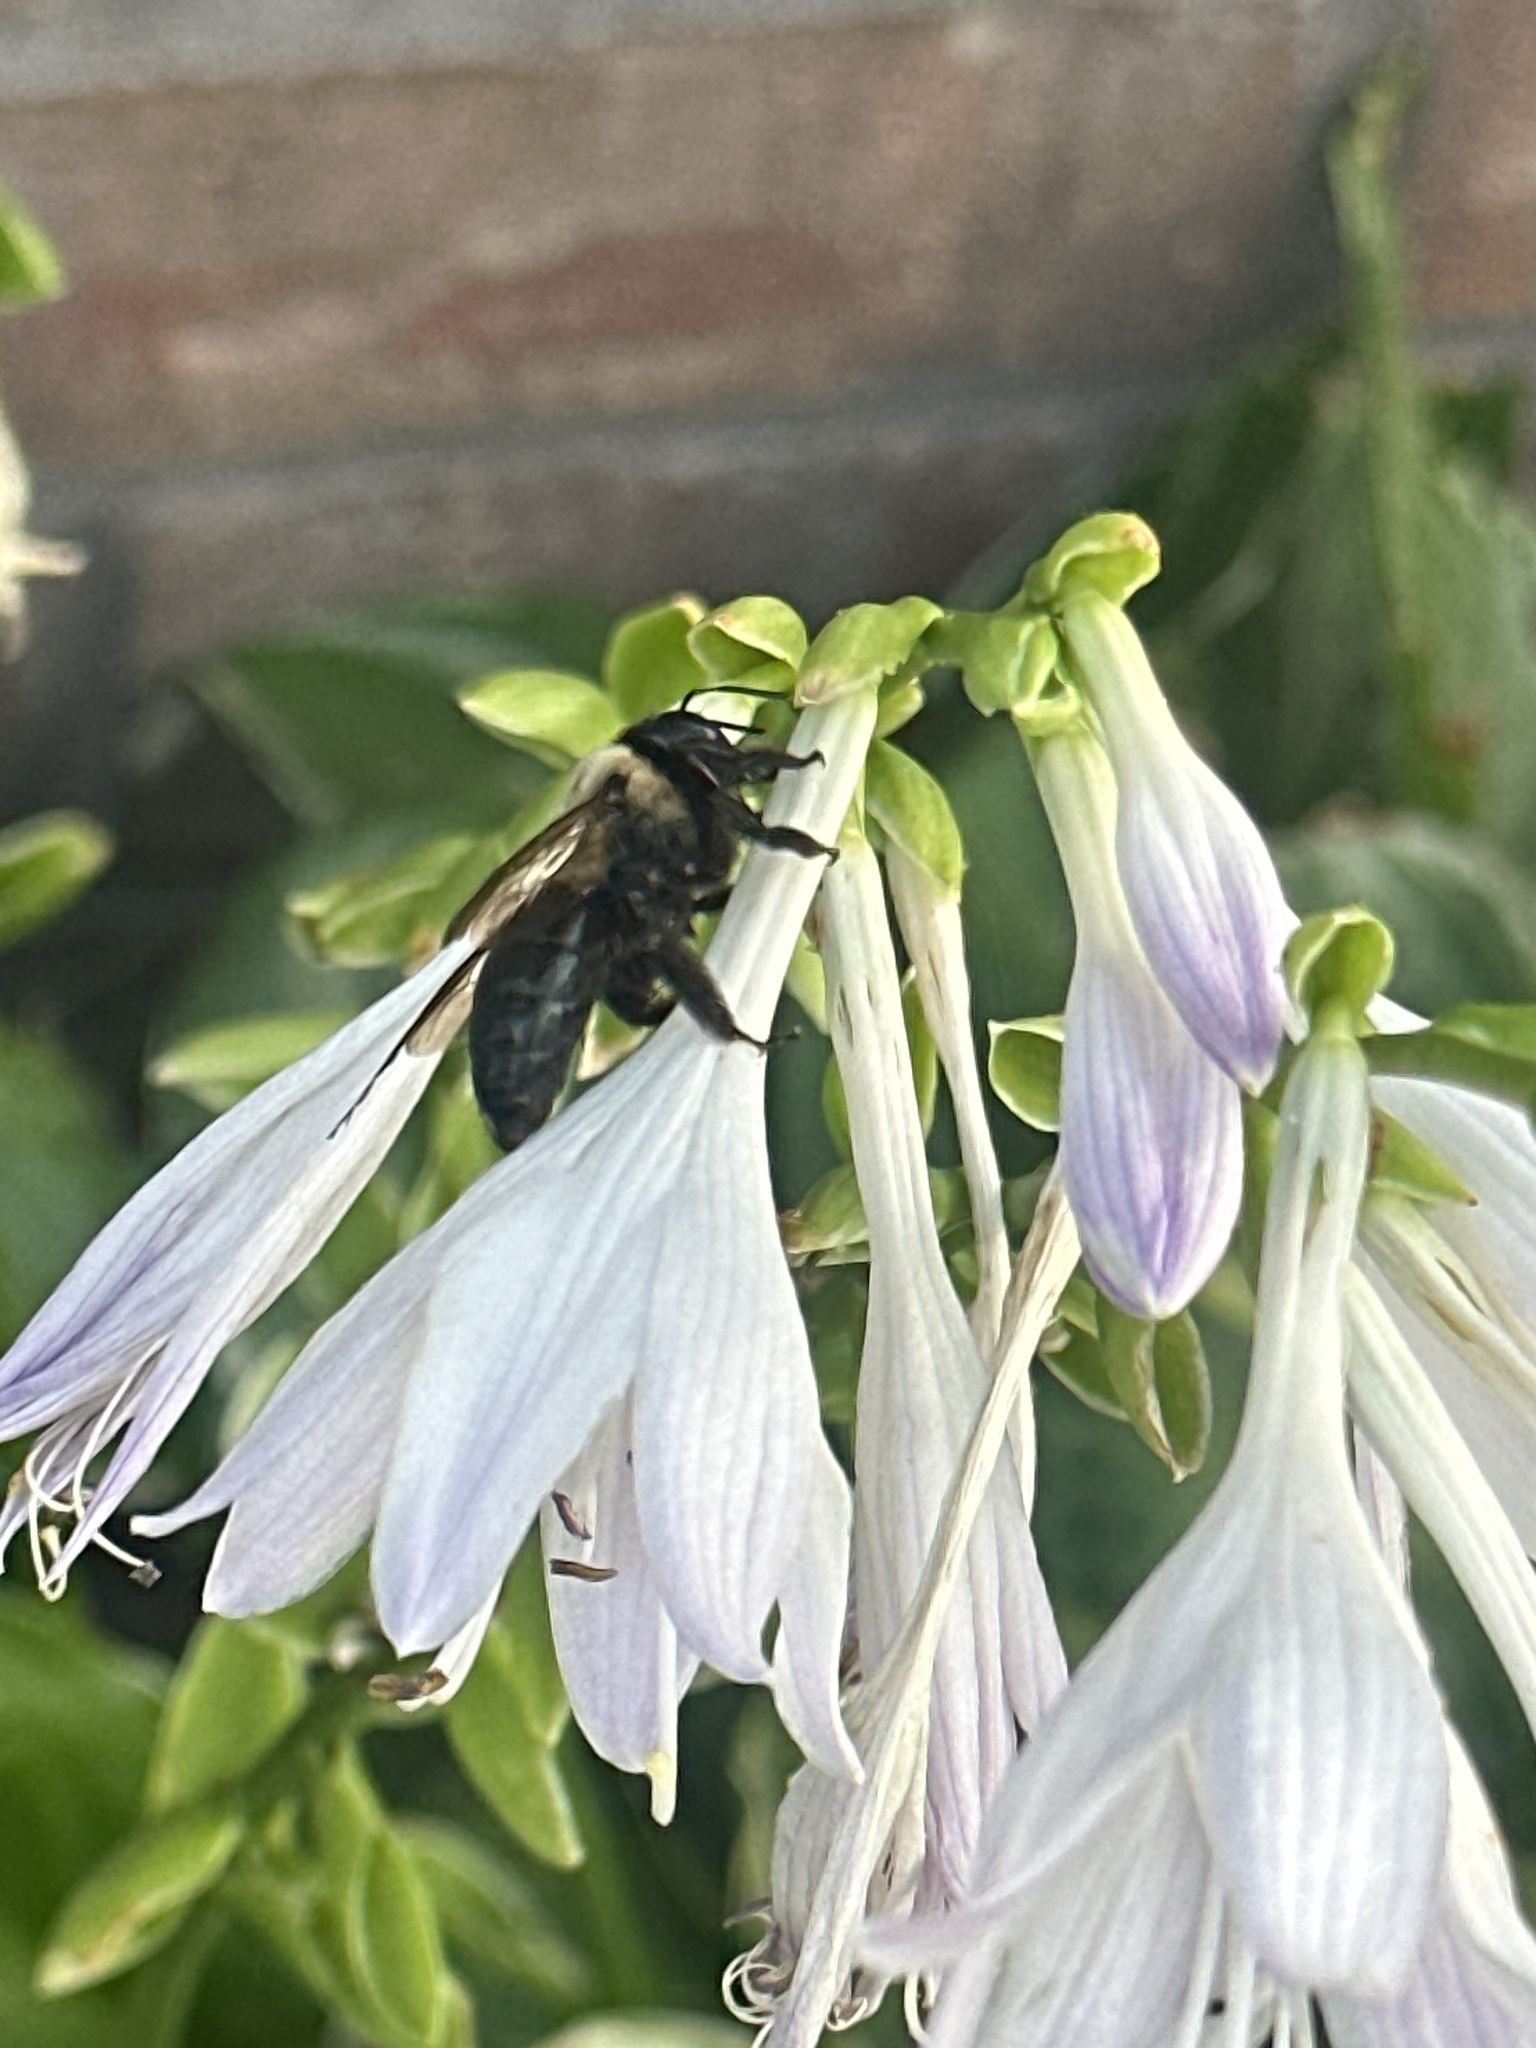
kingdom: Animalia
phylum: Arthropoda
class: Insecta
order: Hymenoptera
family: Apidae
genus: Xylocopa
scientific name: Xylocopa virginica
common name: Carpenter bee
